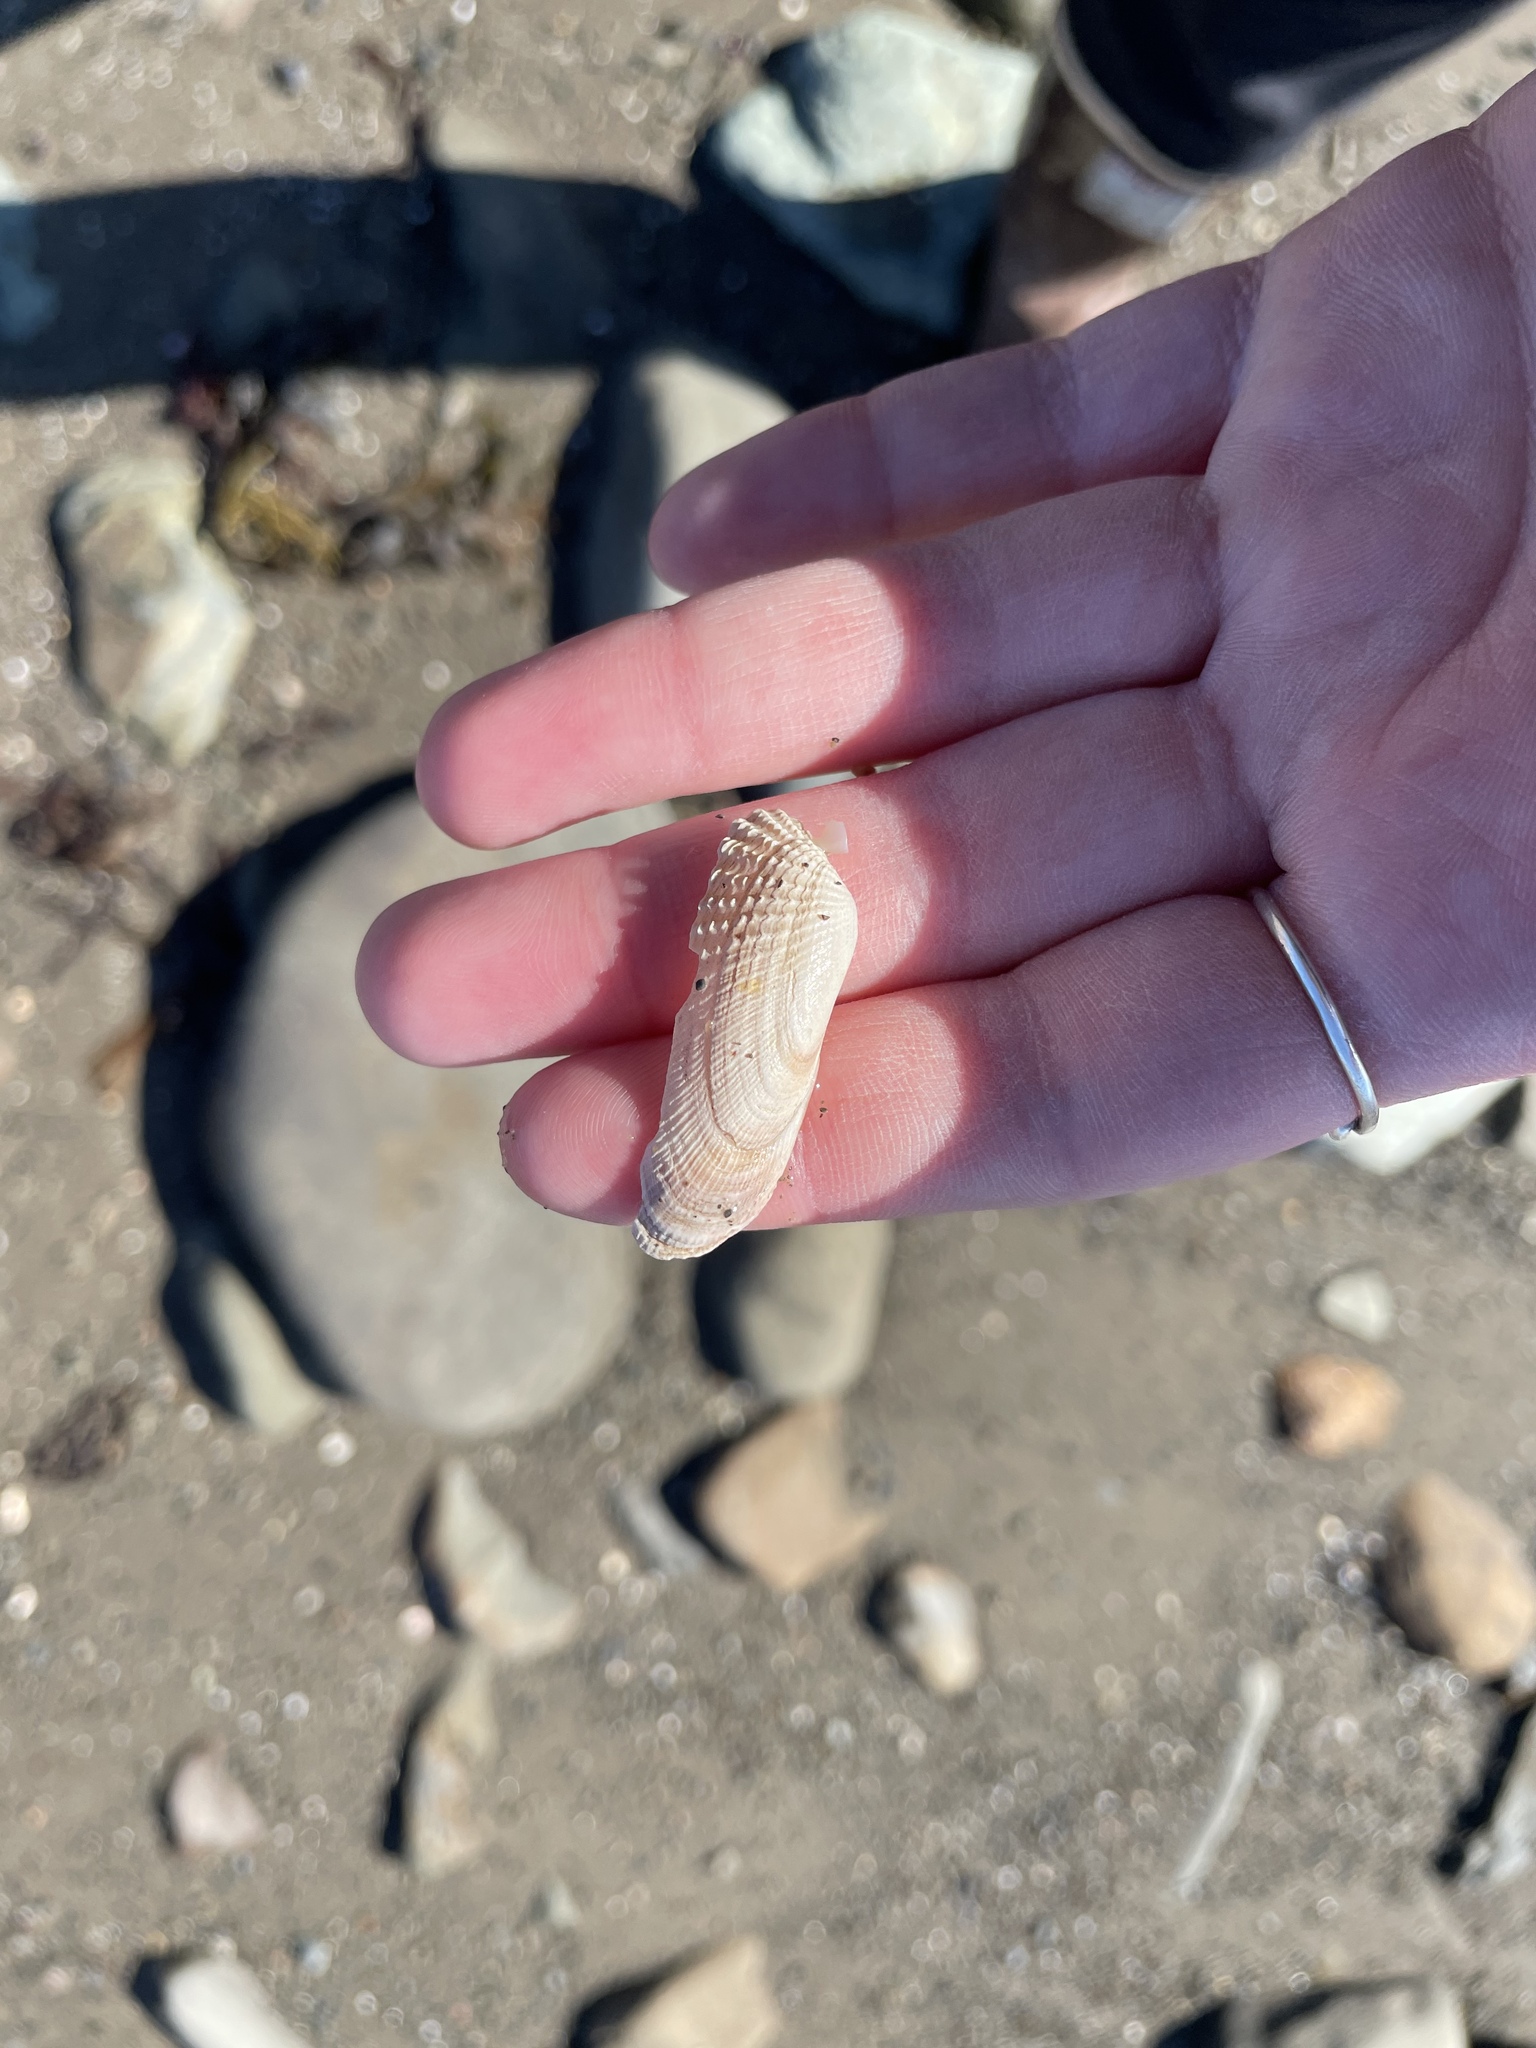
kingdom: Animalia
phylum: Mollusca
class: Bivalvia
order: Venerida
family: Veneridae
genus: Petricolaria
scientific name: Petricolaria pholadiformis
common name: American piddock
